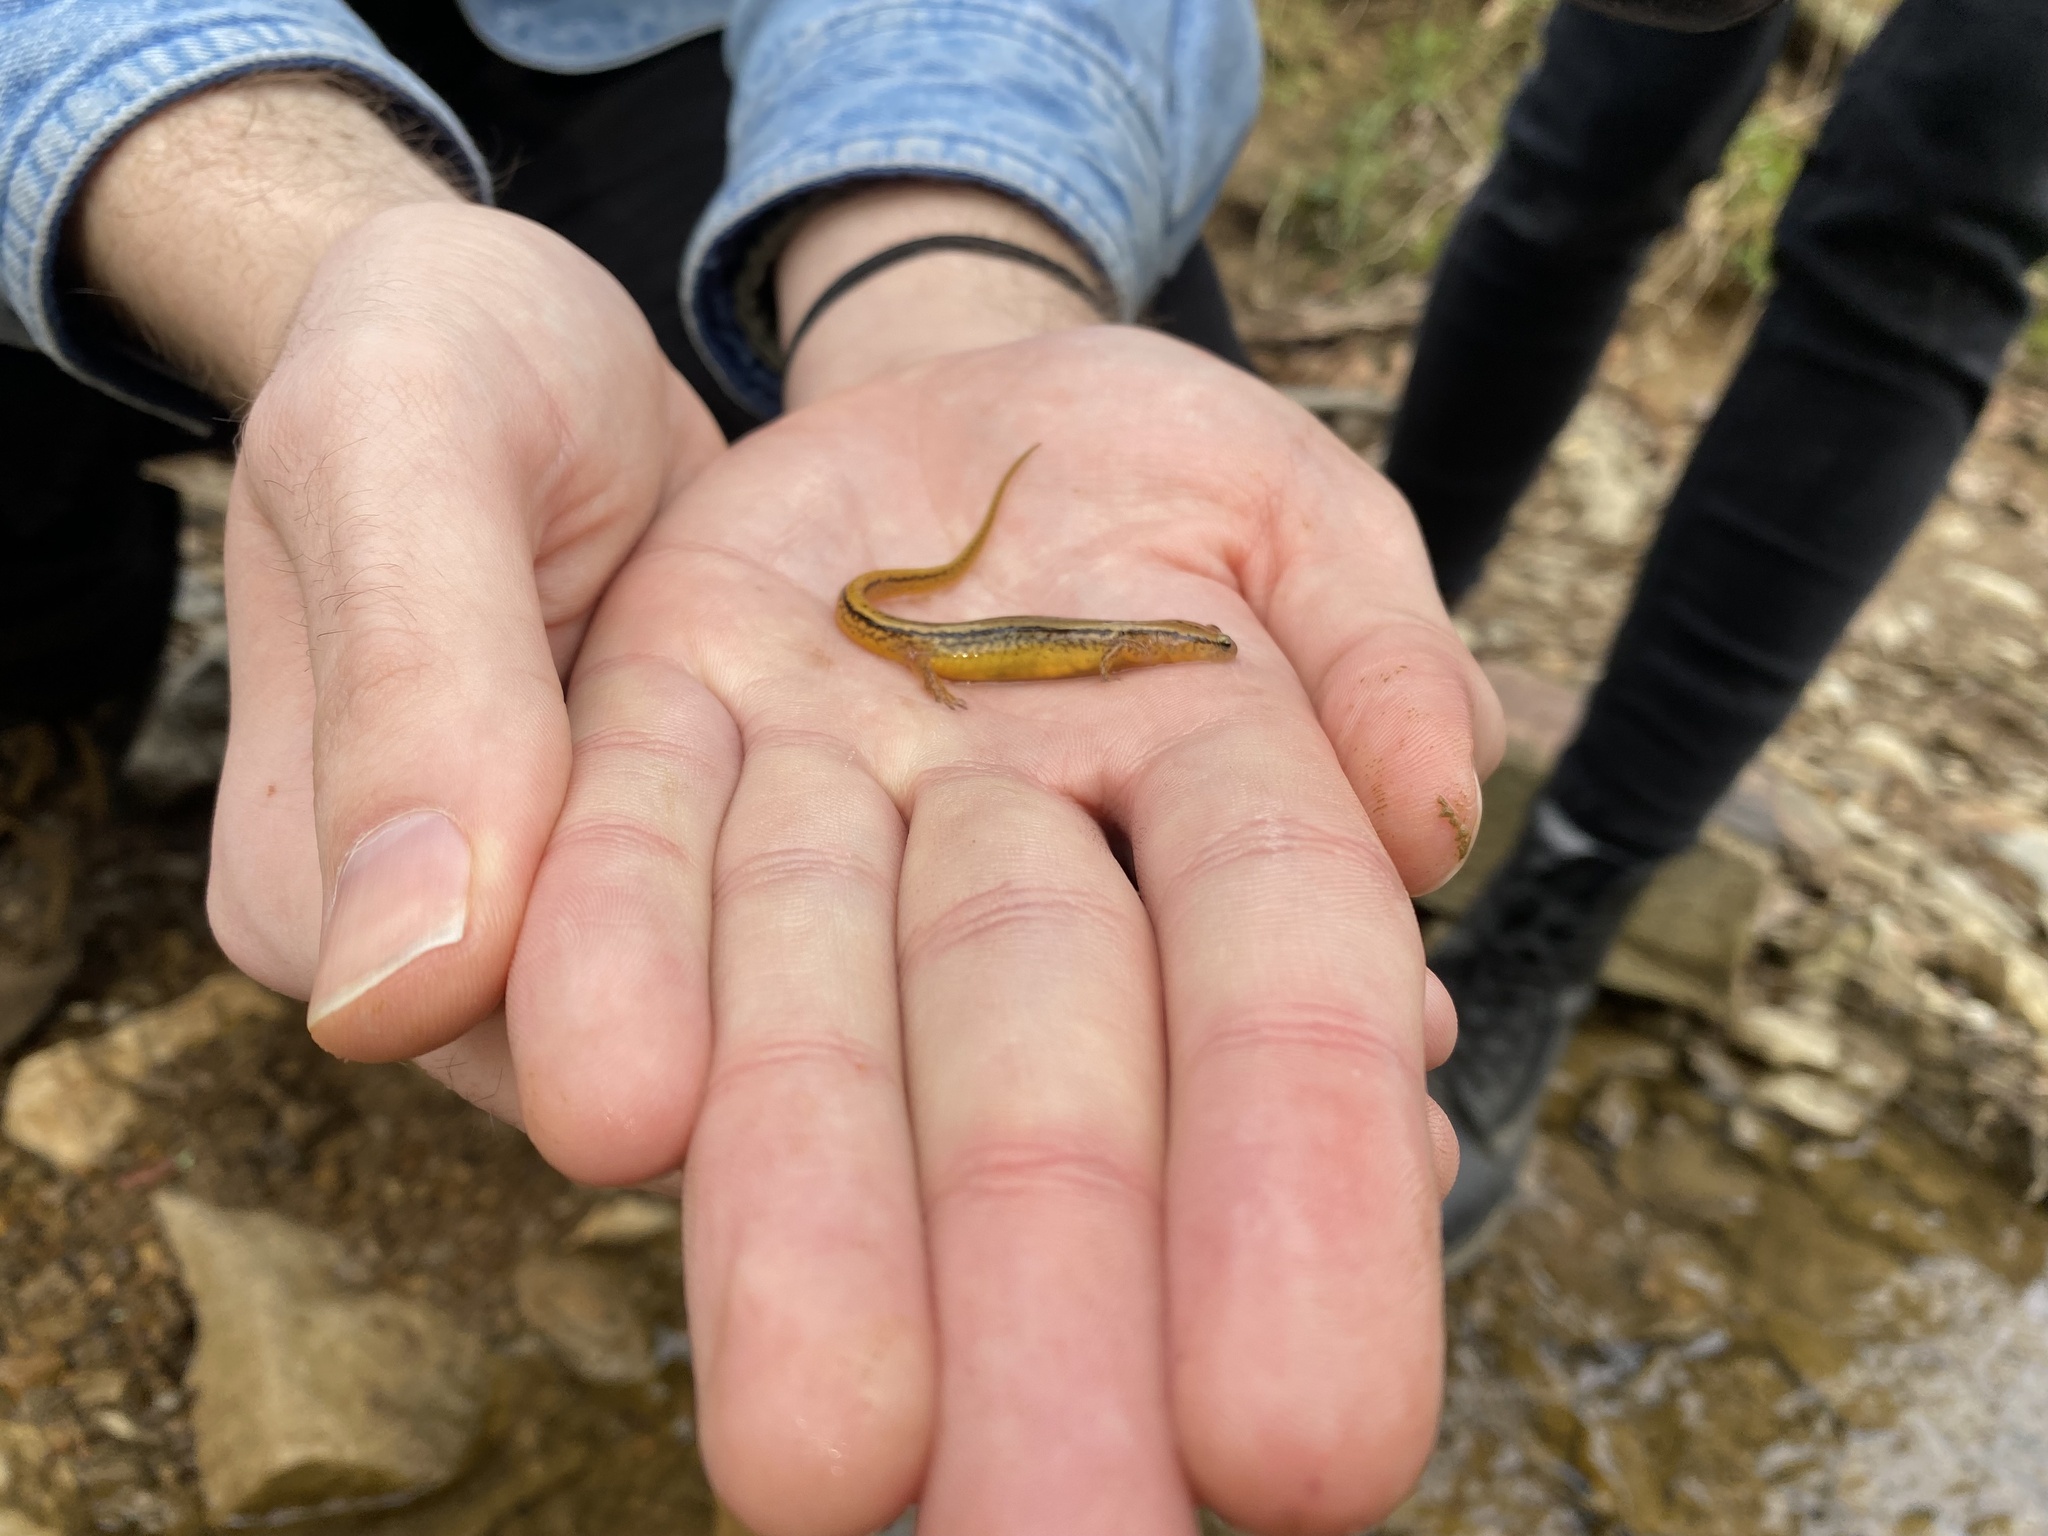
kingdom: Animalia
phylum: Chordata
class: Amphibia
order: Caudata
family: Plethodontidae
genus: Eurycea
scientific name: Eurycea cirrigera
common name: Southern two-lined salamander
